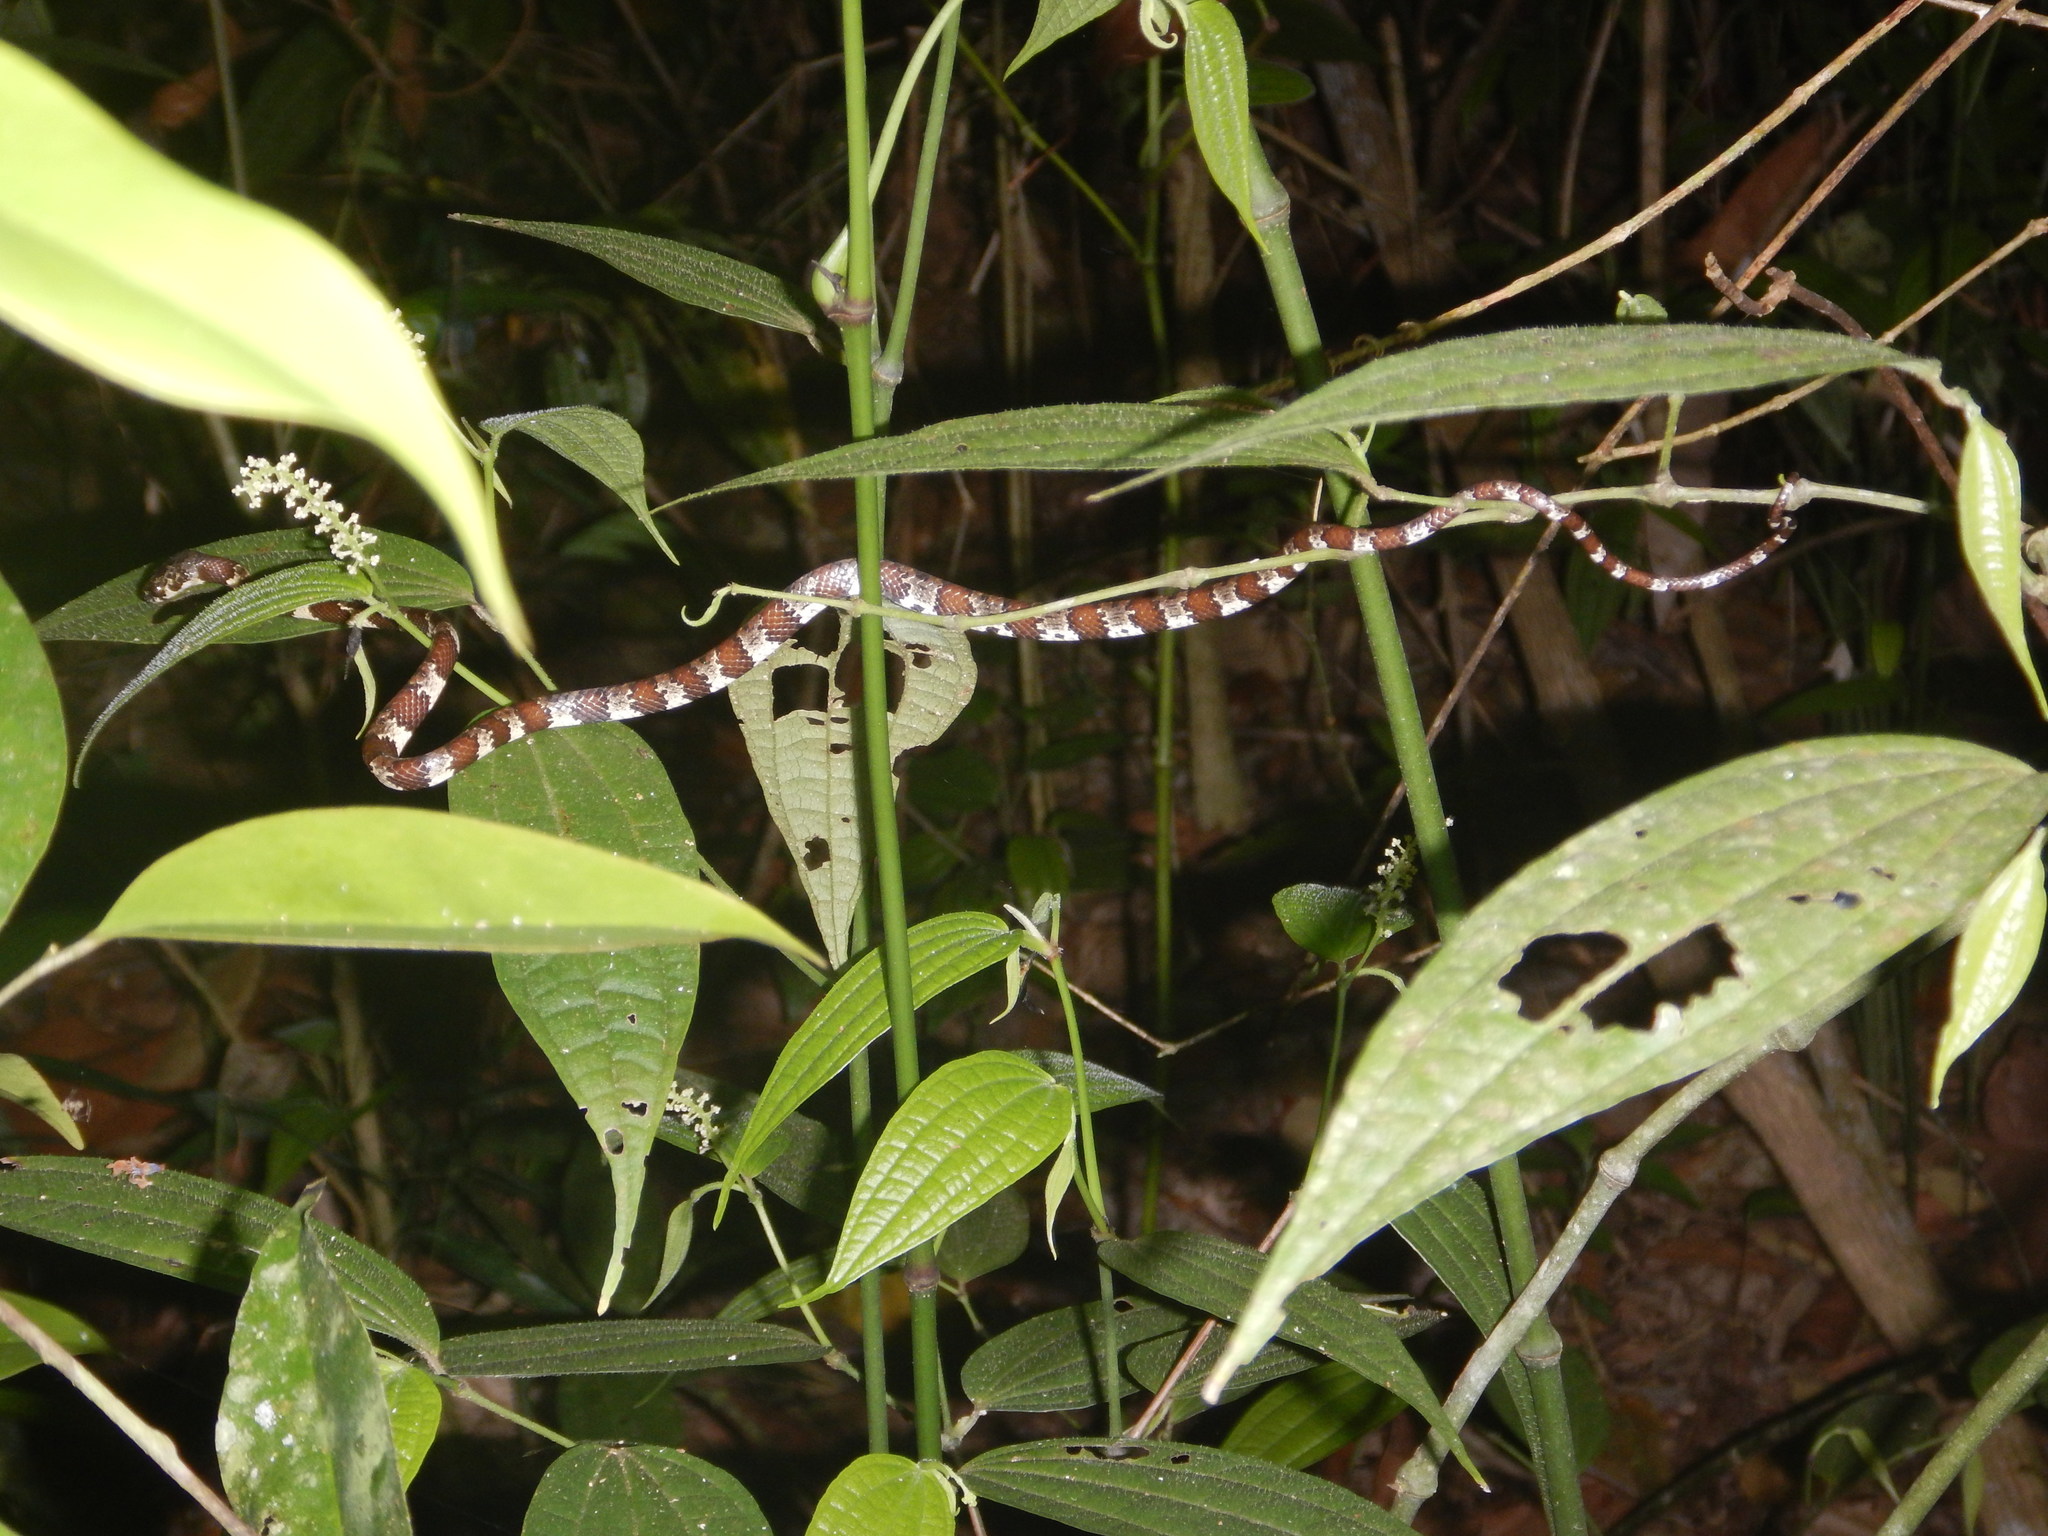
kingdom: Animalia
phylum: Chordata
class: Squamata
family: Colubridae
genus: Imantodes
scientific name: Imantodes cenchoa
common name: Blunthead tree snake
